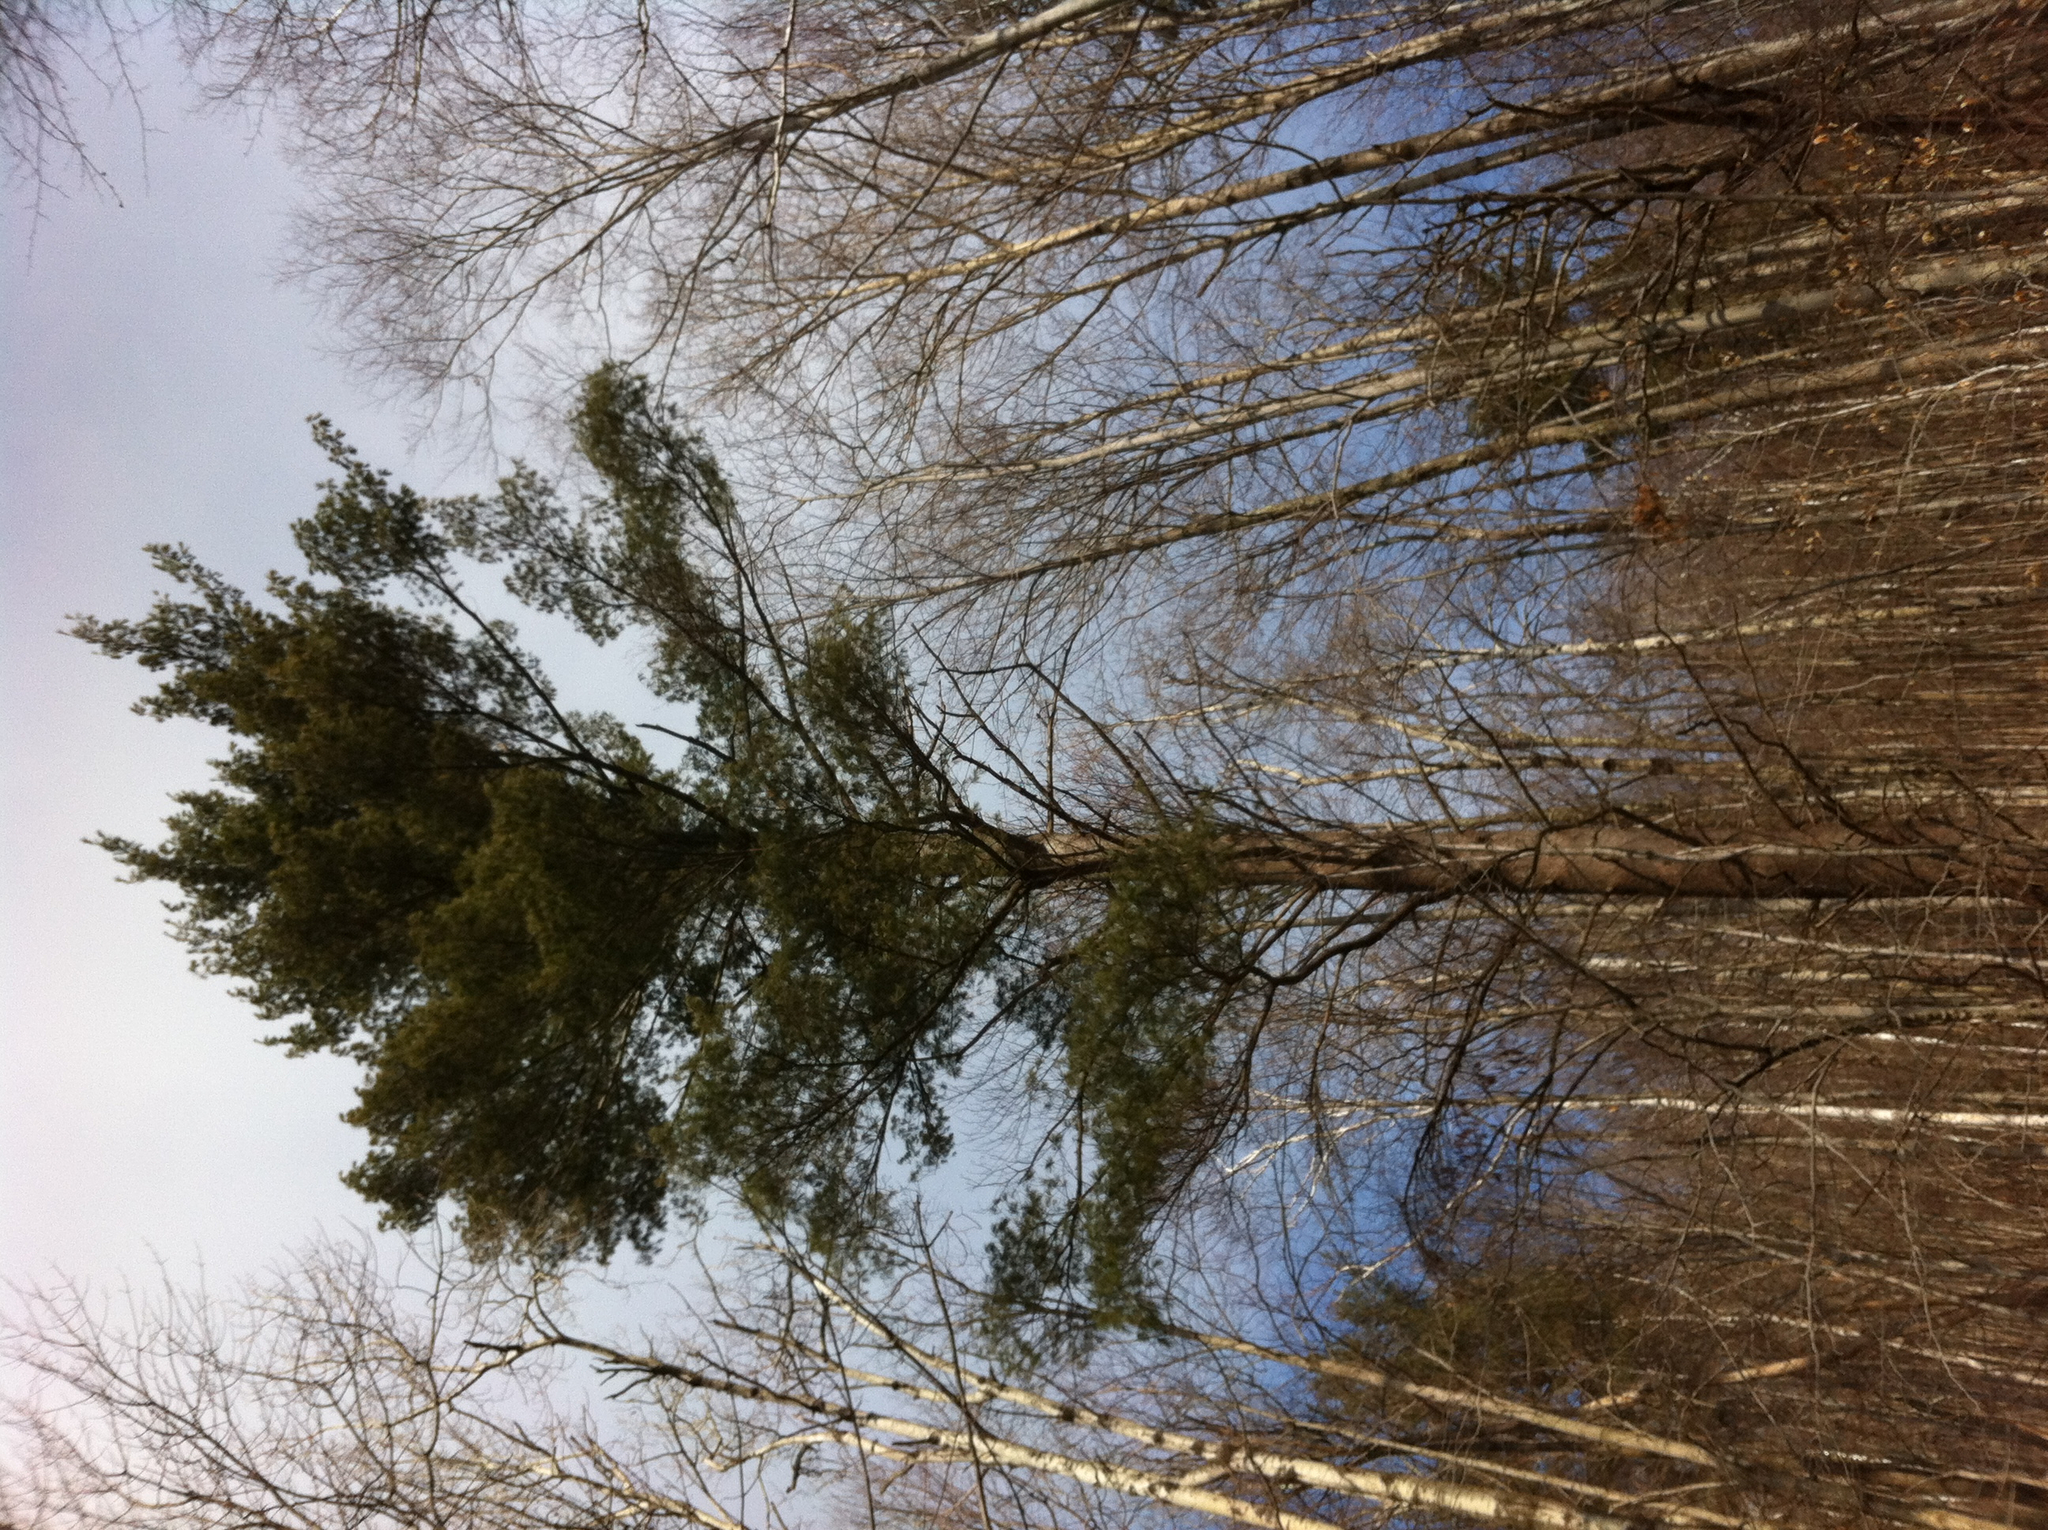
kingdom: Plantae
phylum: Tracheophyta
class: Pinopsida
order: Pinales
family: Pinaceae
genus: Pinus
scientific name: Pinus strobus
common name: Weymouth pine
